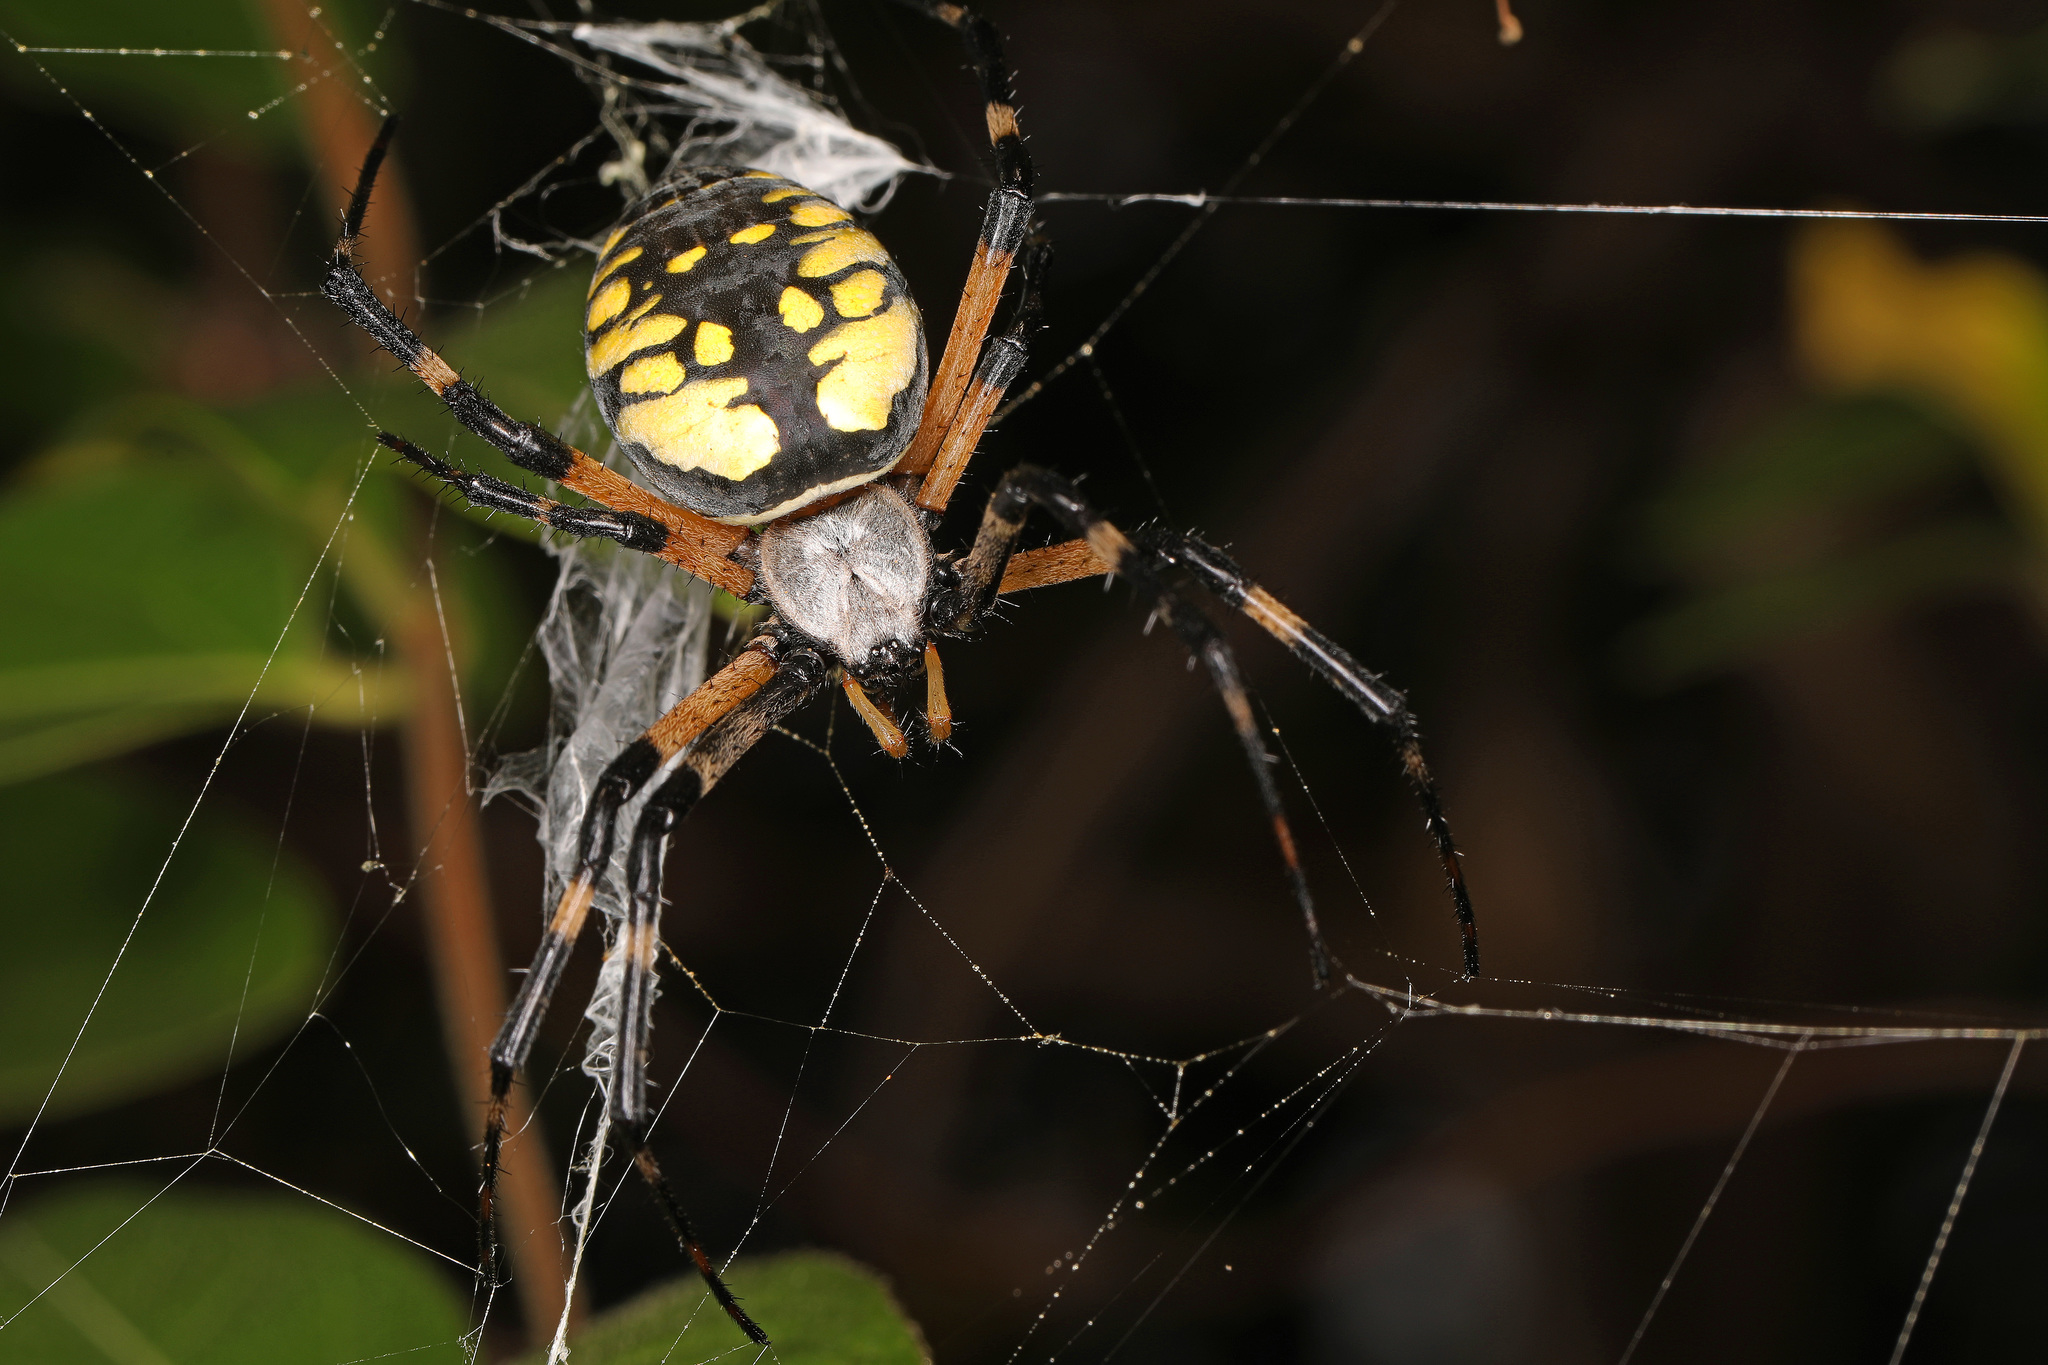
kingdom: Animalia
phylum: Arthropoda
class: Arachnida
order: Araneae
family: Araneidae
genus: Argiope
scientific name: Argiope aurantia
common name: Orb weavers
